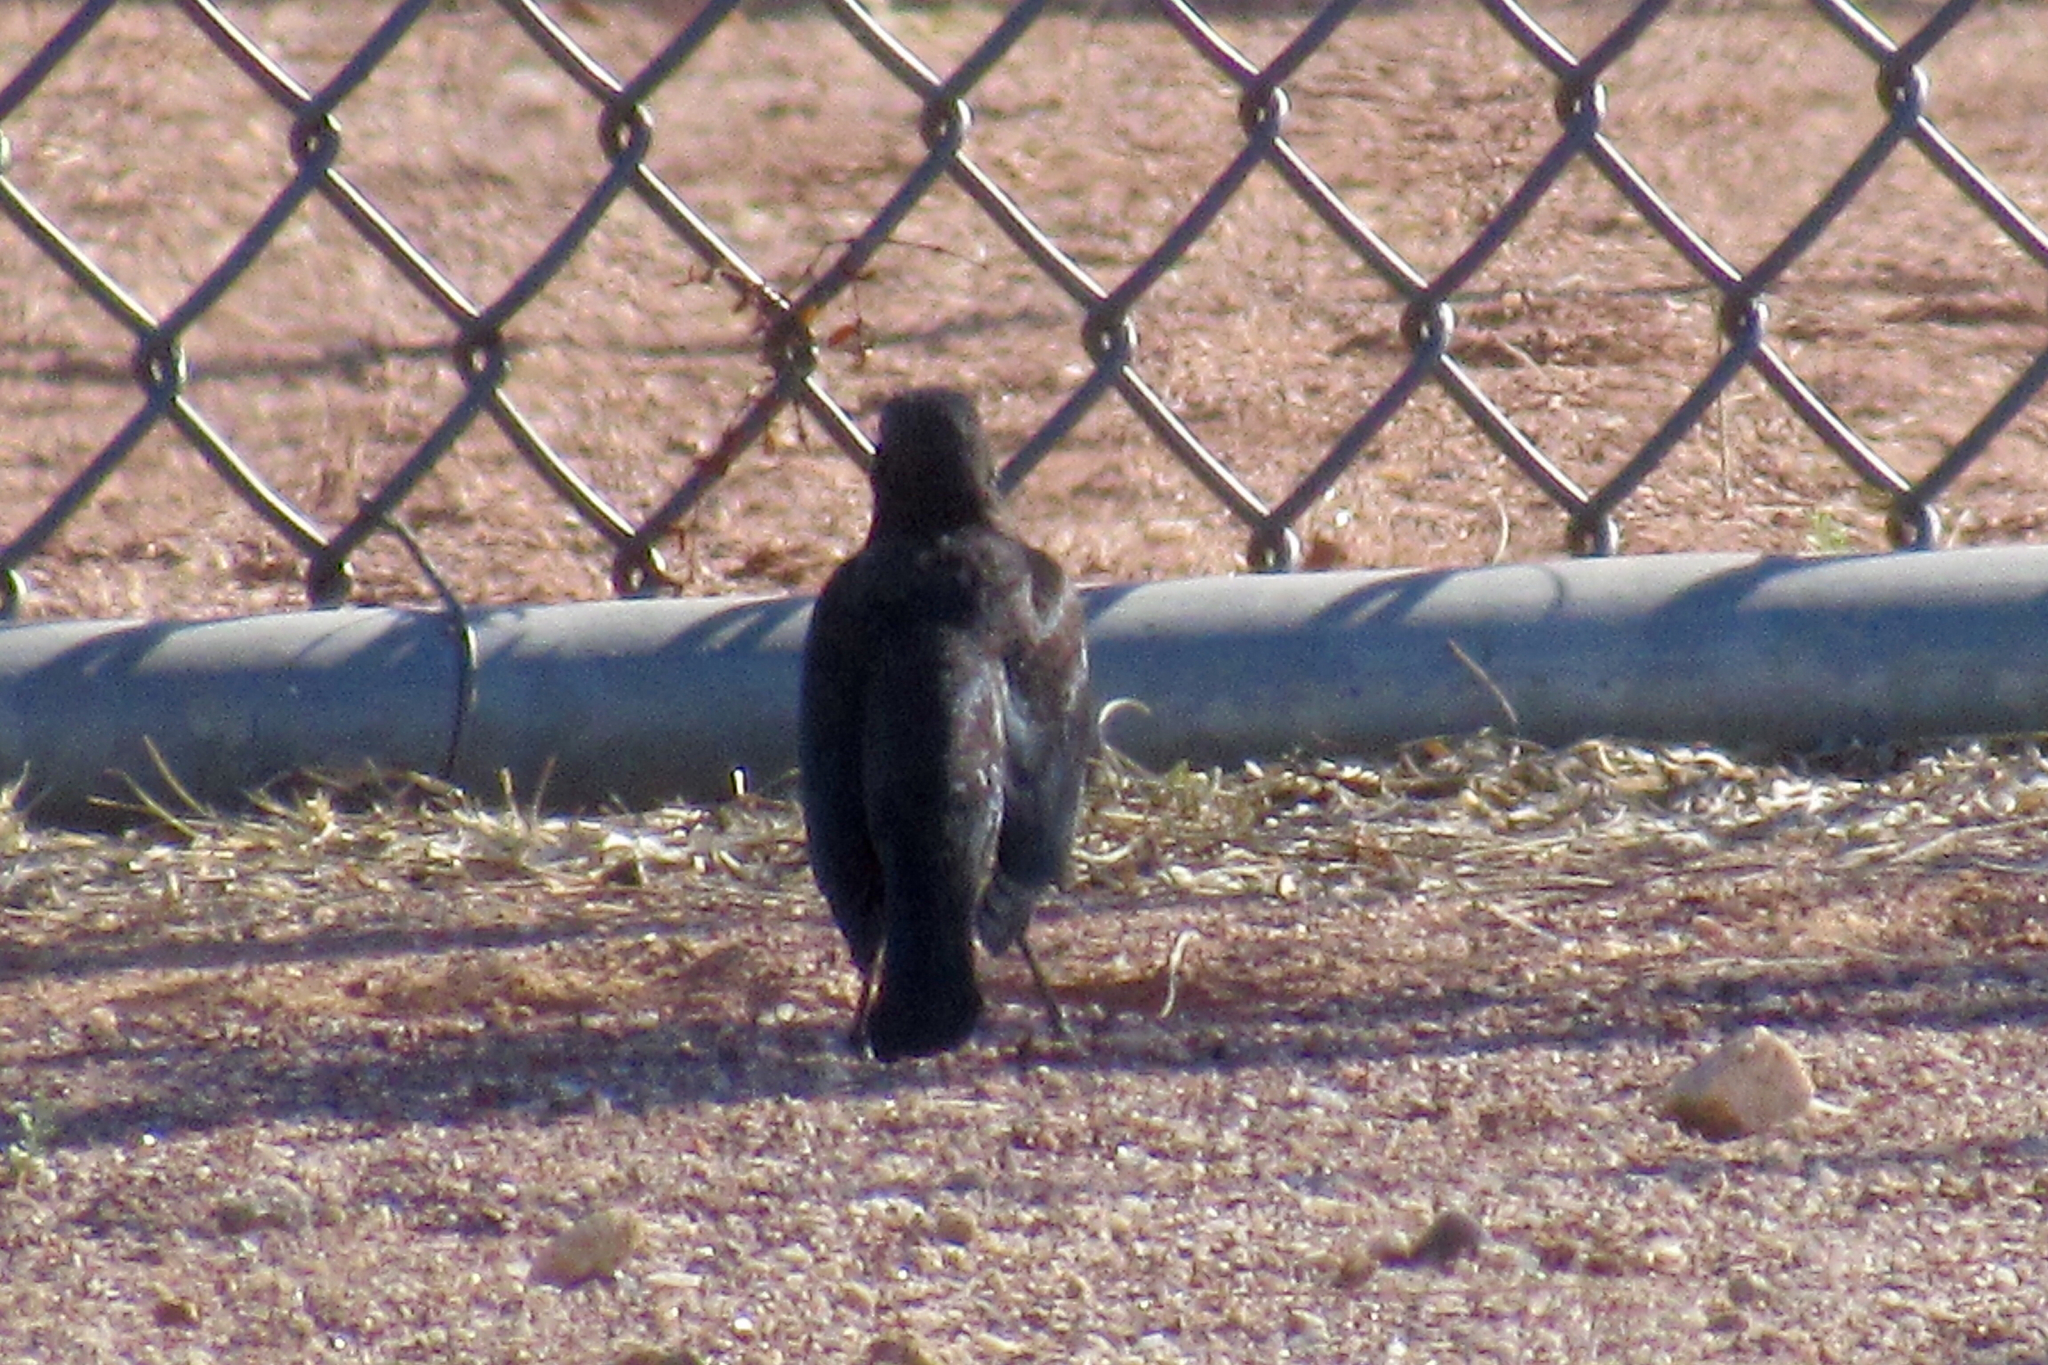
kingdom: Animalia
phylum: Chordata
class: Aves
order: Passeriformes
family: Icteridae
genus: Euphagus
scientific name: Euphagus cyanocephalus
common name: Brewer's blackbird
